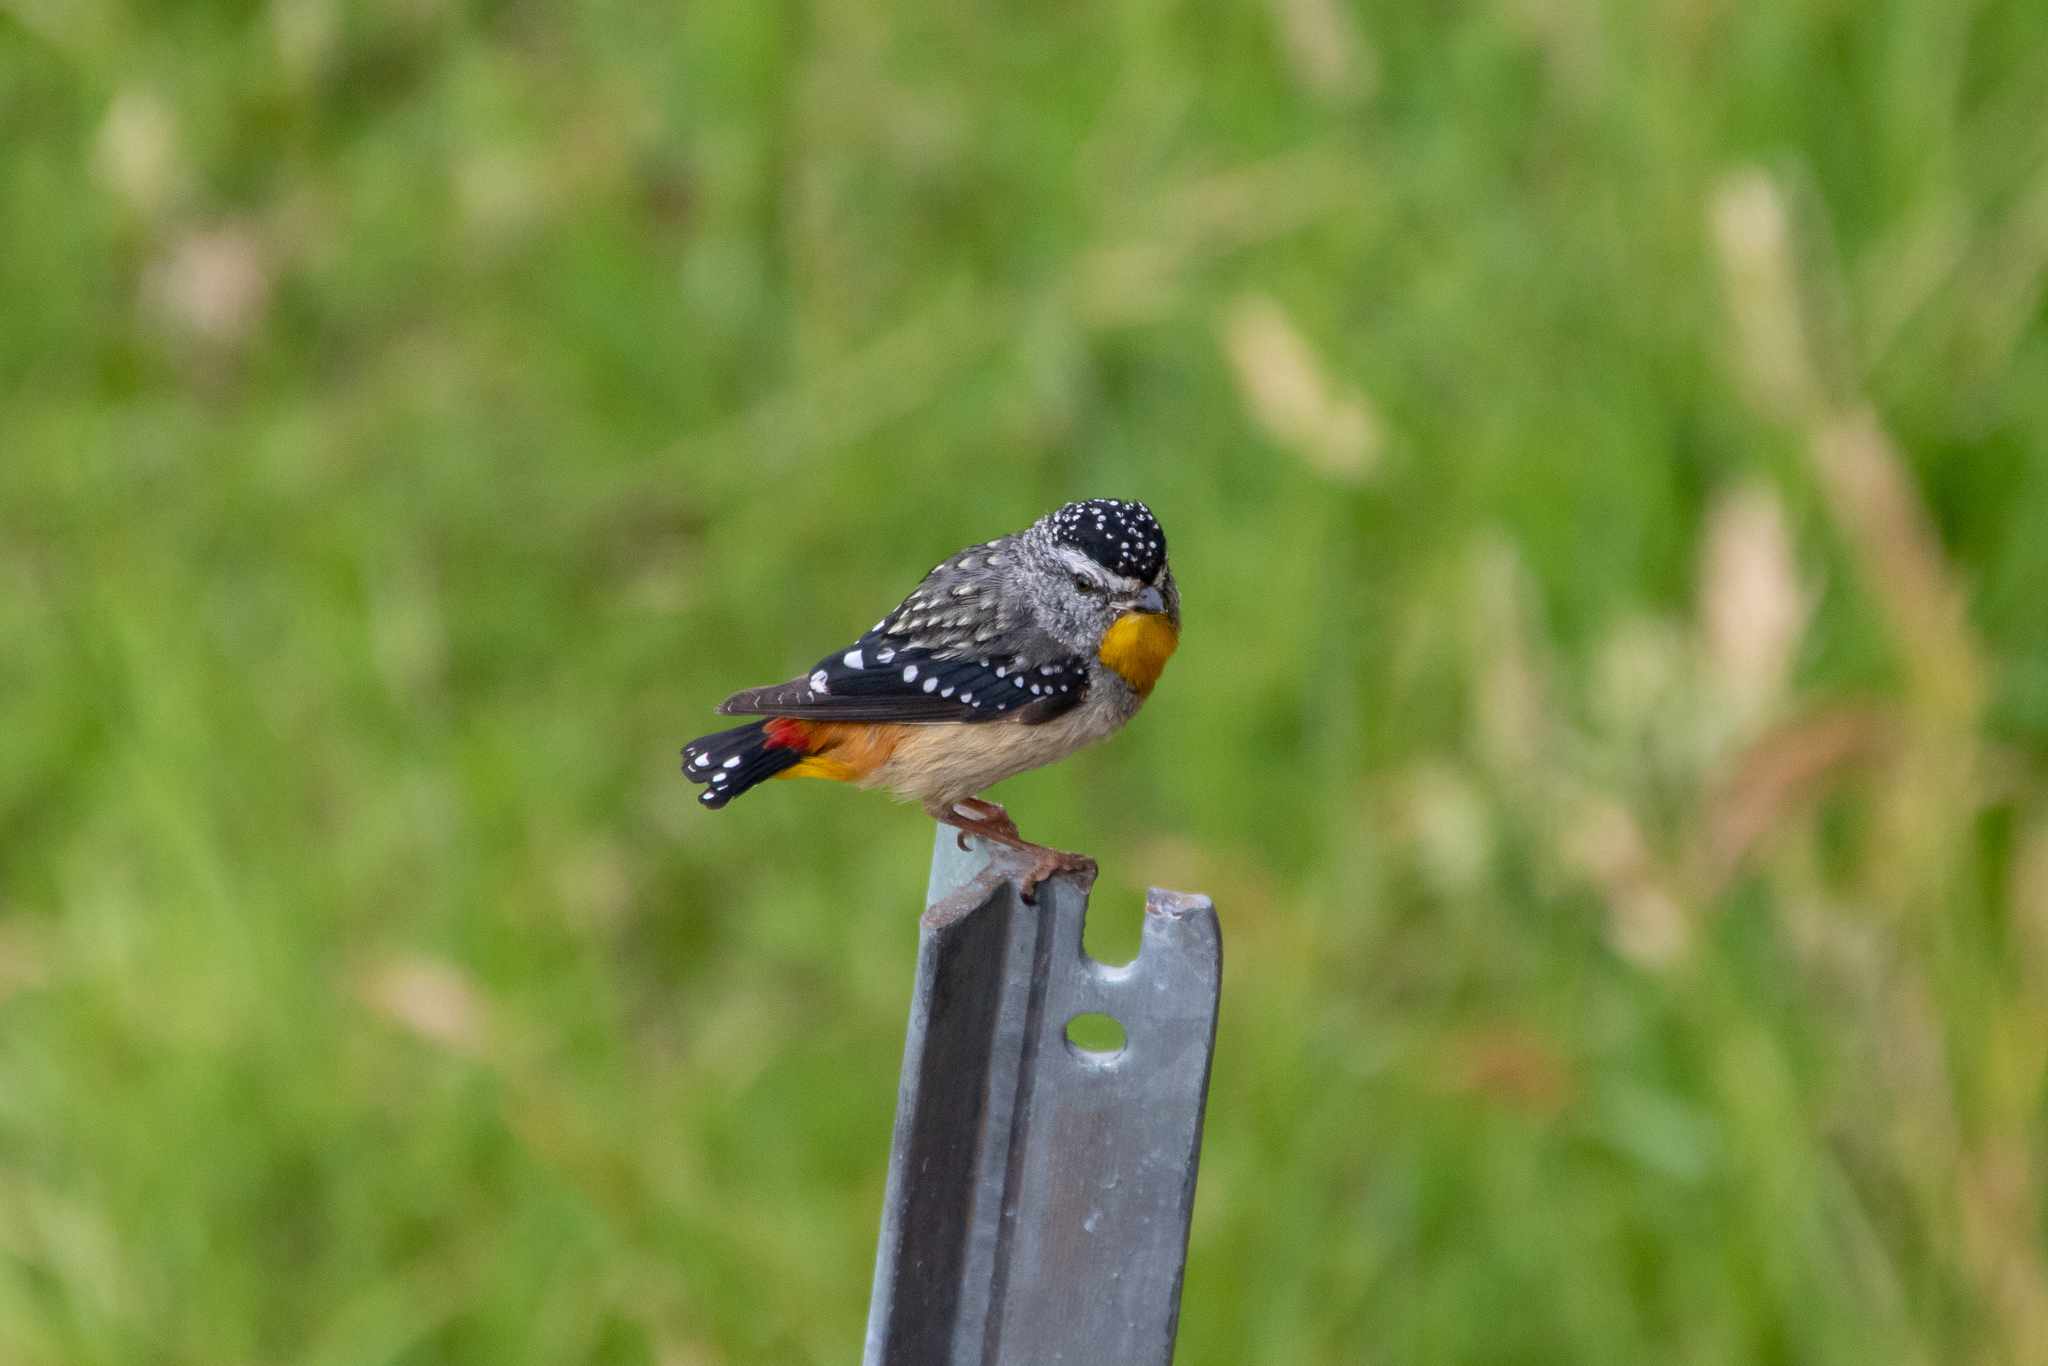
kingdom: Animalia
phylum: Chordata
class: Aves
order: Passeriformes
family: Pardalotidae
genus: Pardalotus
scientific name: Pardalotus punctatus
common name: Spotted pardalote
